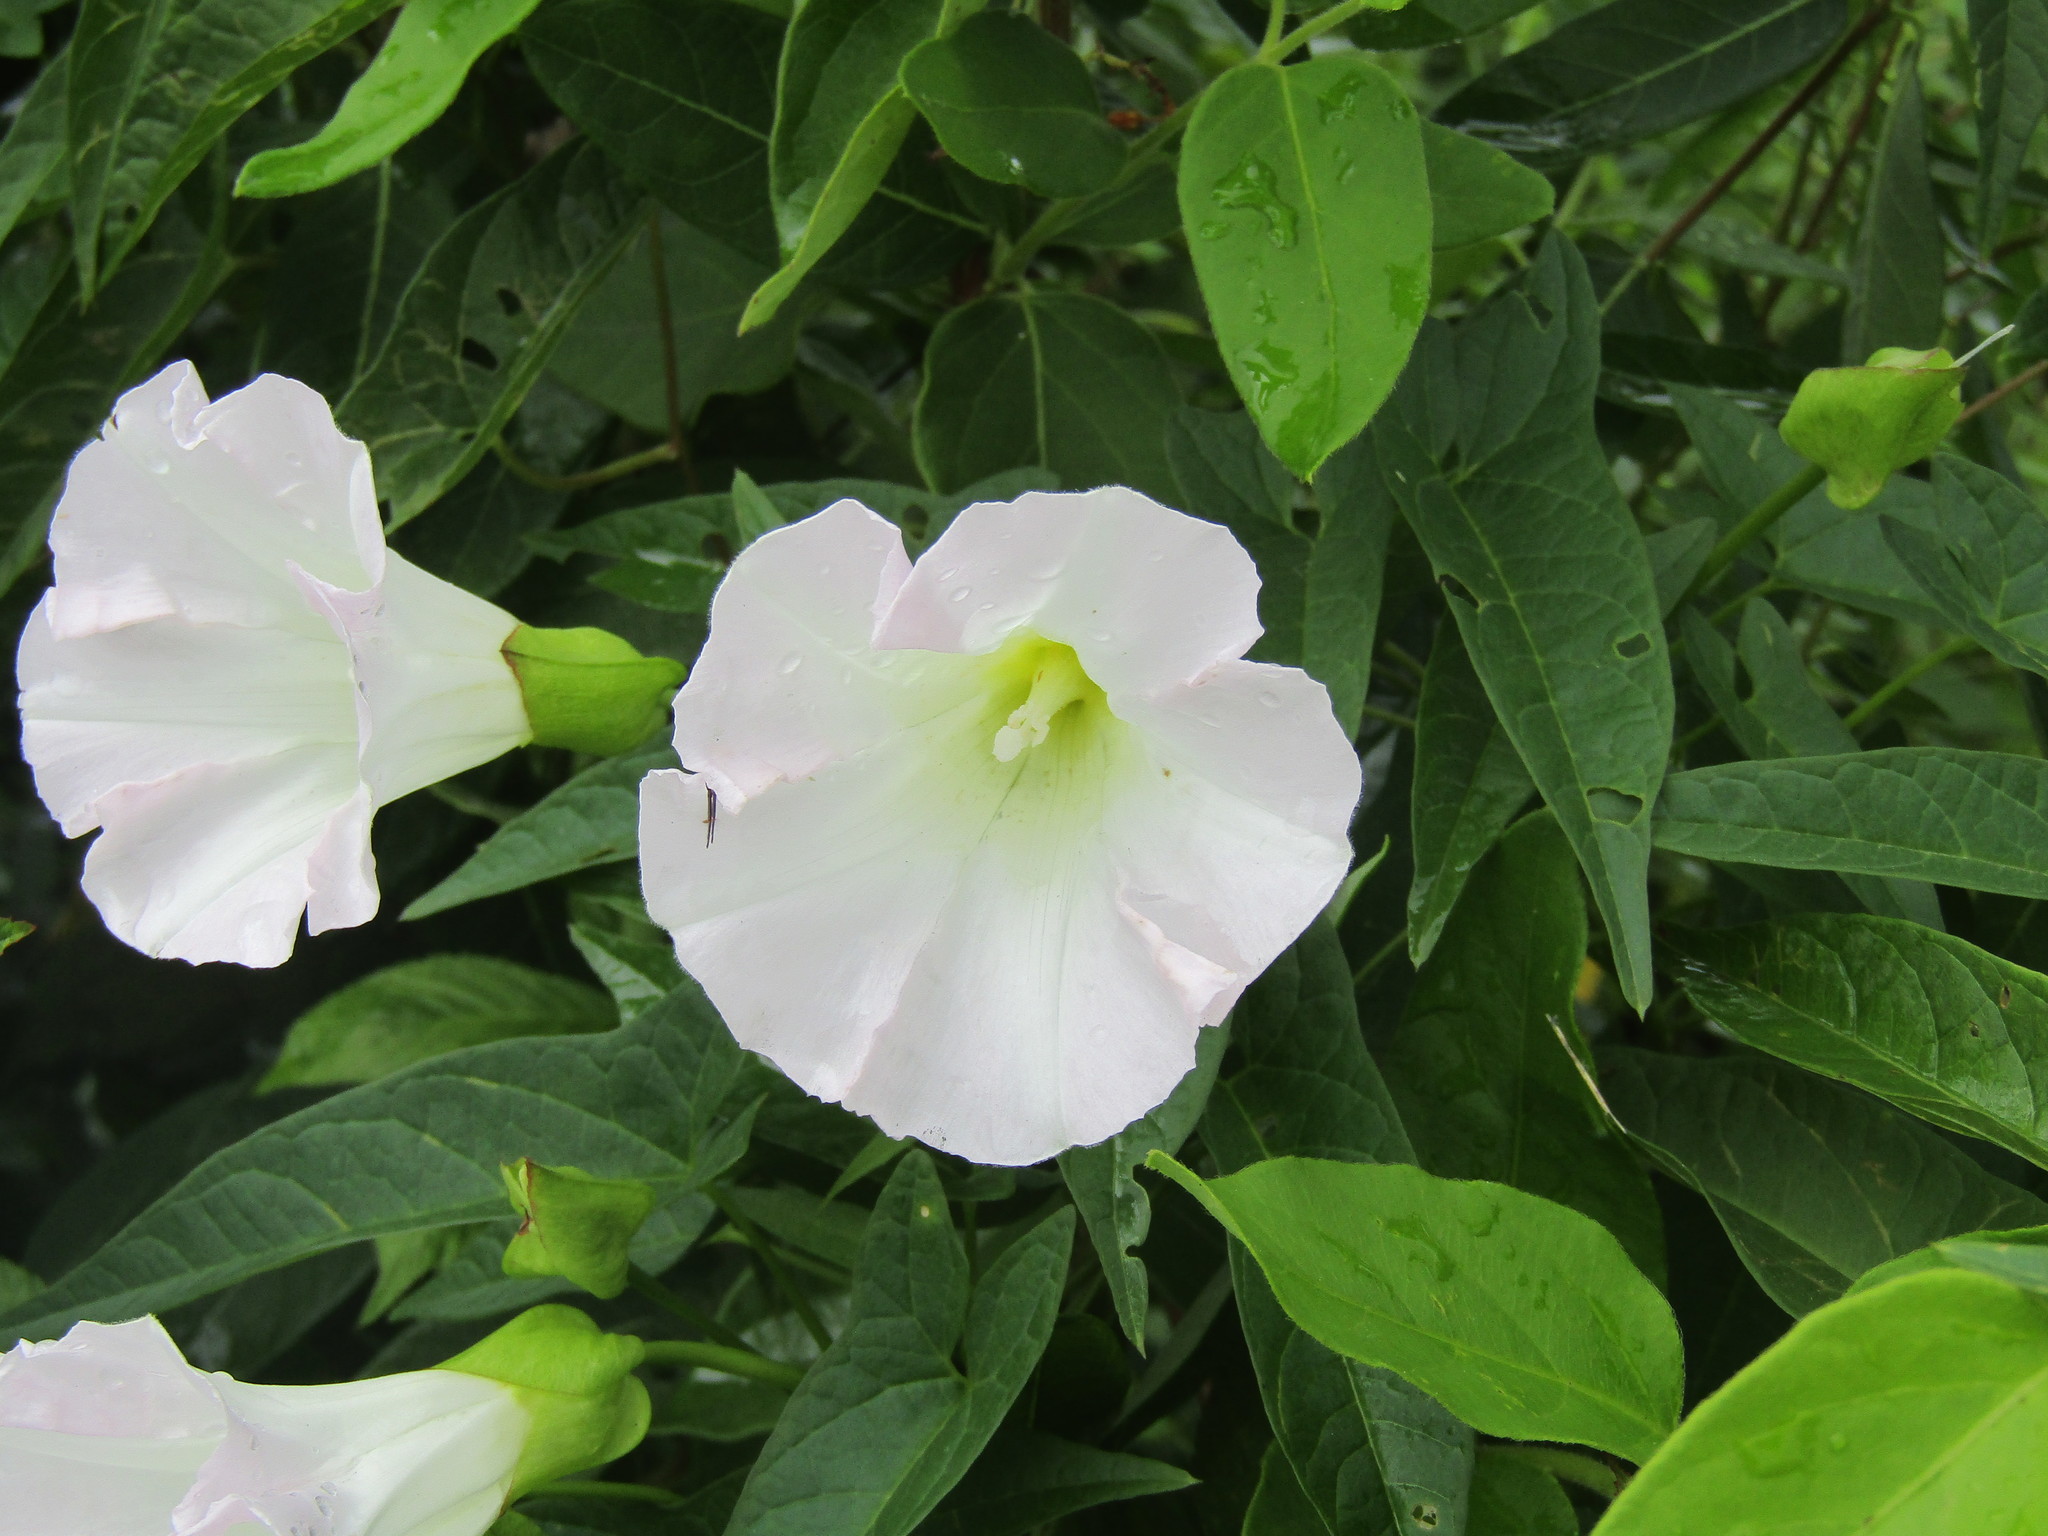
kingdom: Plantae
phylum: Tracheophyta
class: Magnoliopsida
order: Solanales
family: Convolvulaceae
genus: Calystegia
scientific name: Calystegia sepium
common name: Hedge bindweed
